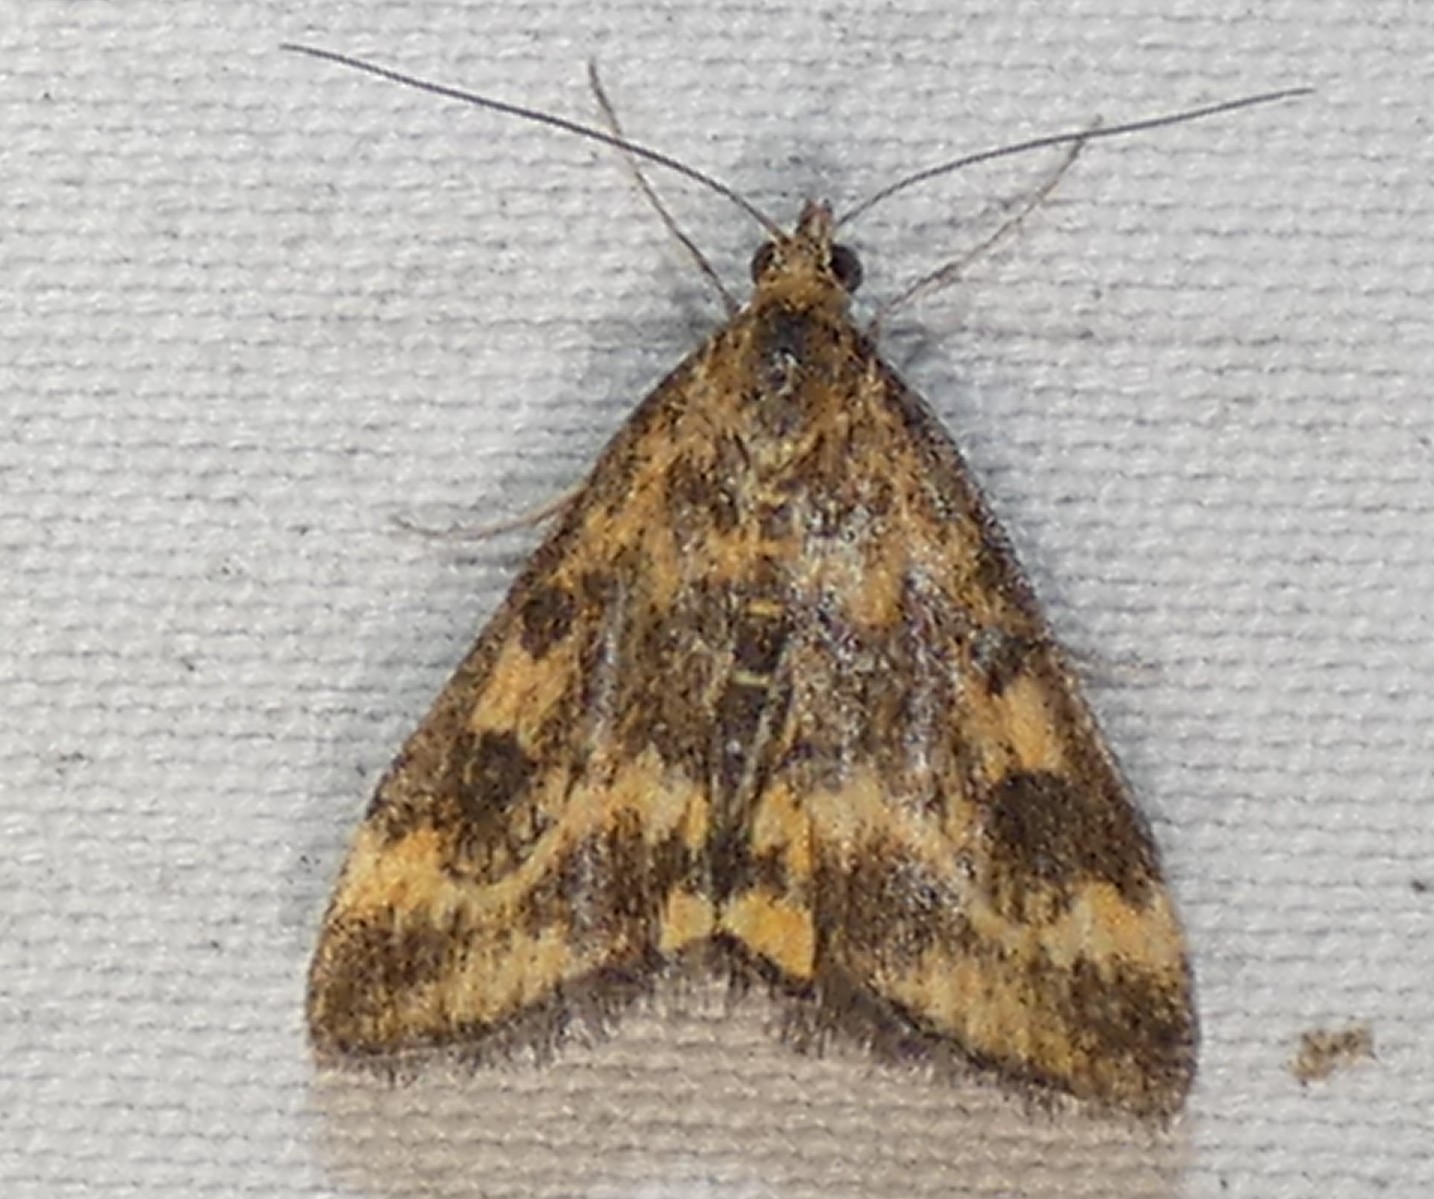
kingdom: Animalia
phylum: Arthropoda
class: Insecta
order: Lepidoptera
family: Crambidae
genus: Pyrausta
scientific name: Pyrausta subsequalis
